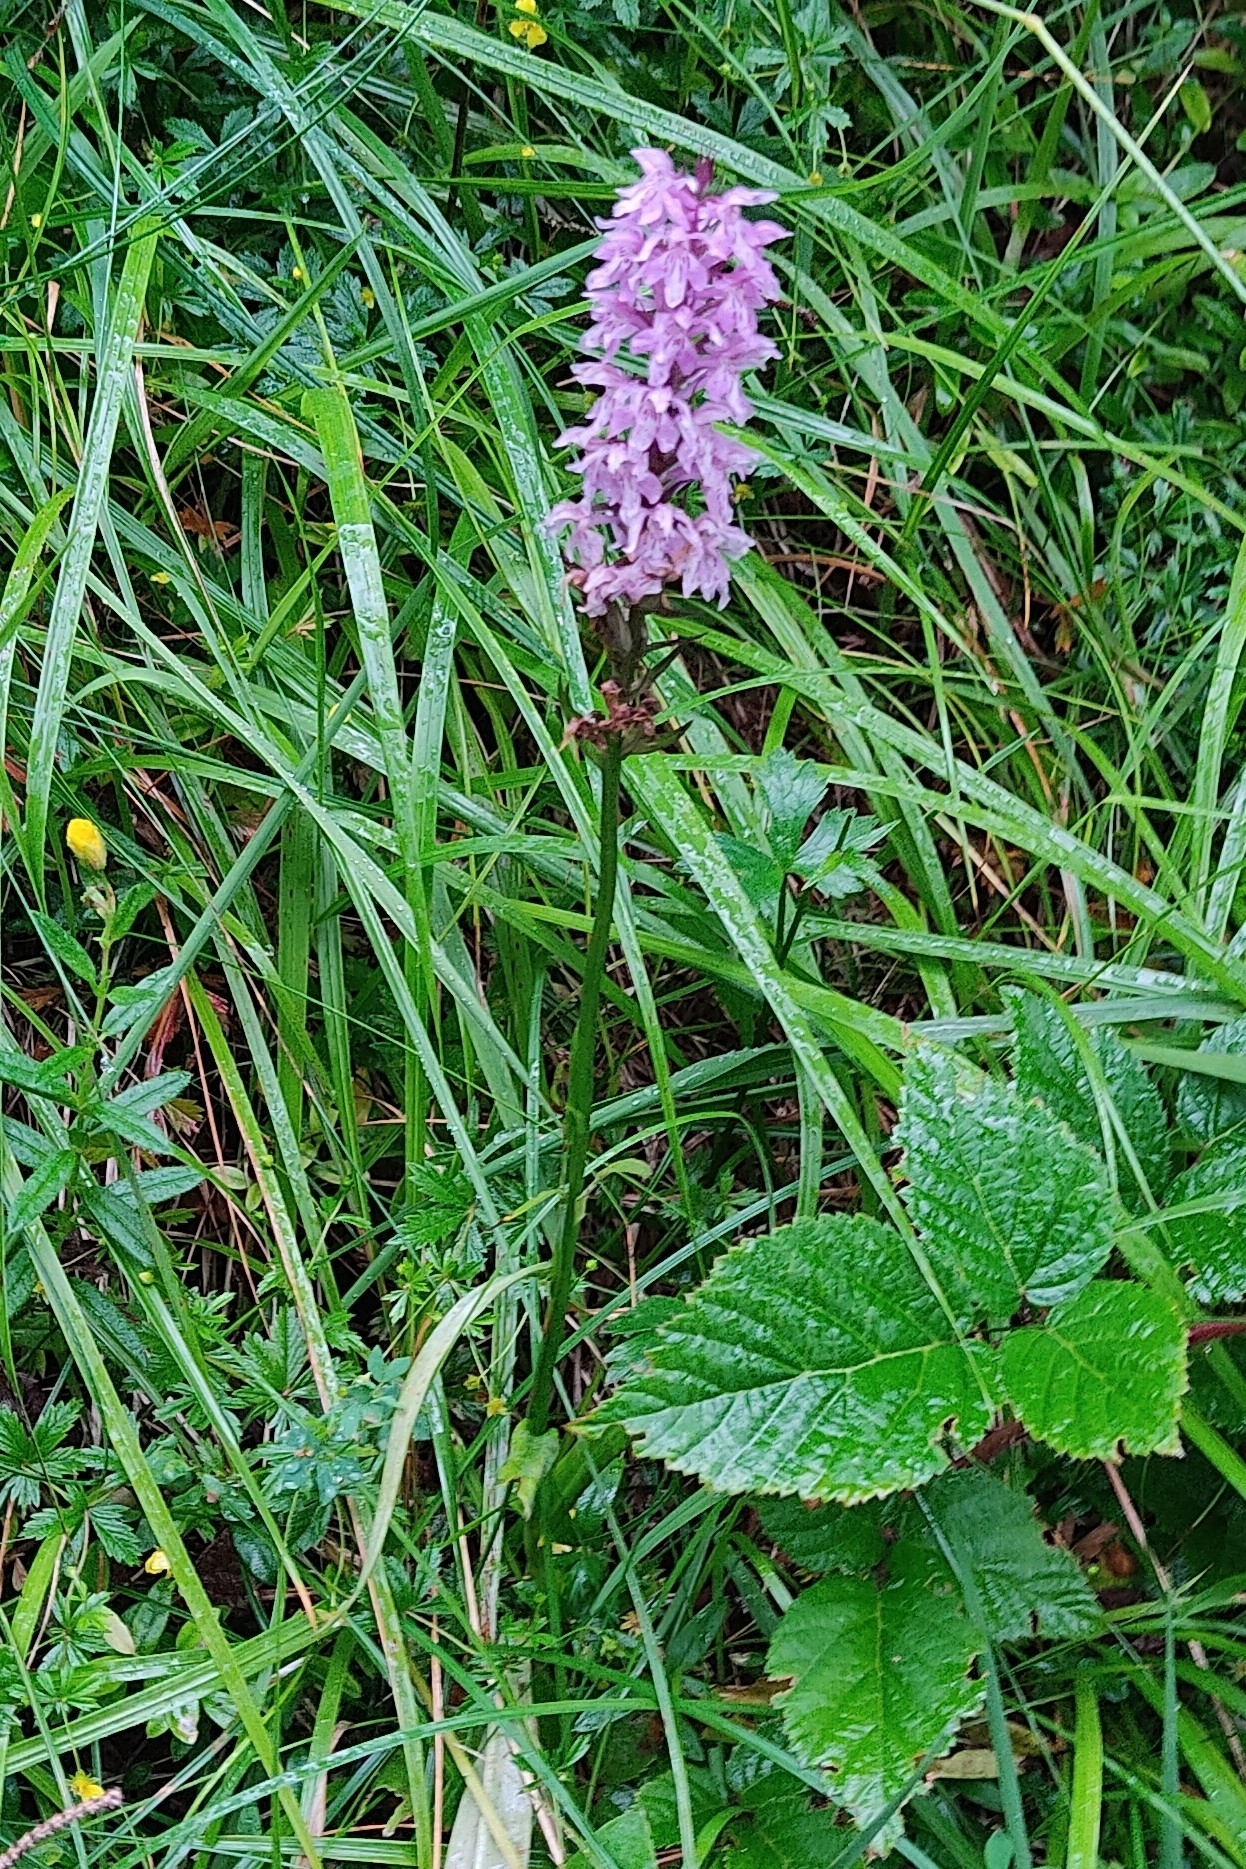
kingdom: Plantae
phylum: Tracheophyta
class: Liliopsida
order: Asparagales
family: Orchidaceae
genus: Dactylorhiza
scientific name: Dactylorhiza maculata
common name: Heath spotted-orchid
